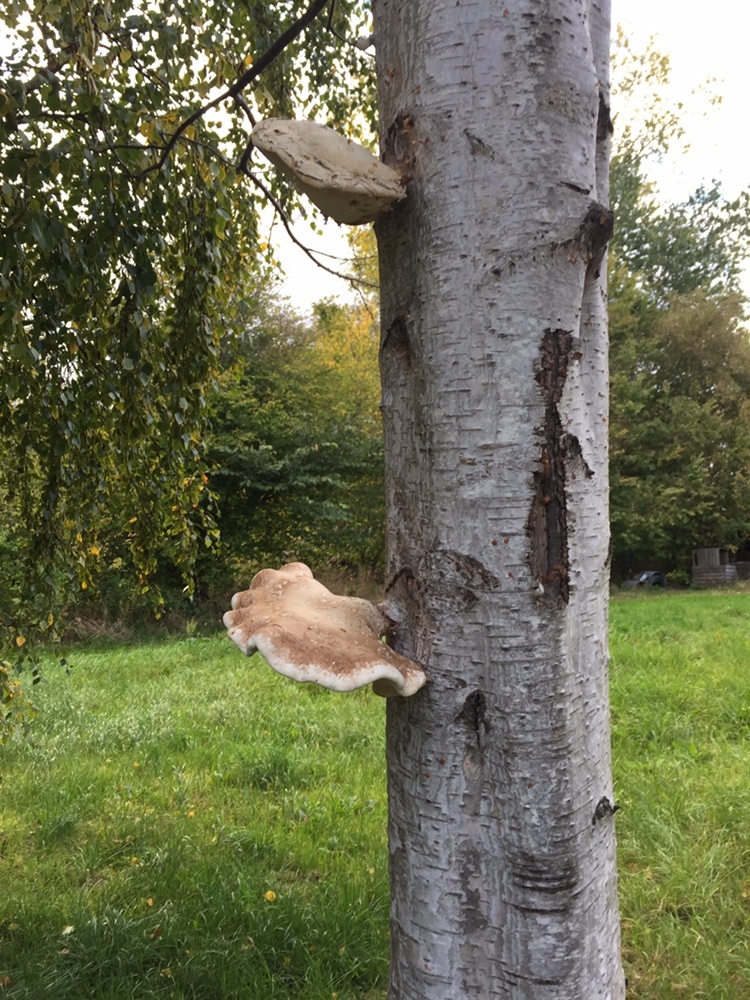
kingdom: Fungi
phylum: Basidiomycota
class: Agaricomycetes
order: Polyporales
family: Fomitopsidaceae
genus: Fomitopsis
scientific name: Fomitopsis betulina
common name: Birch polypore
